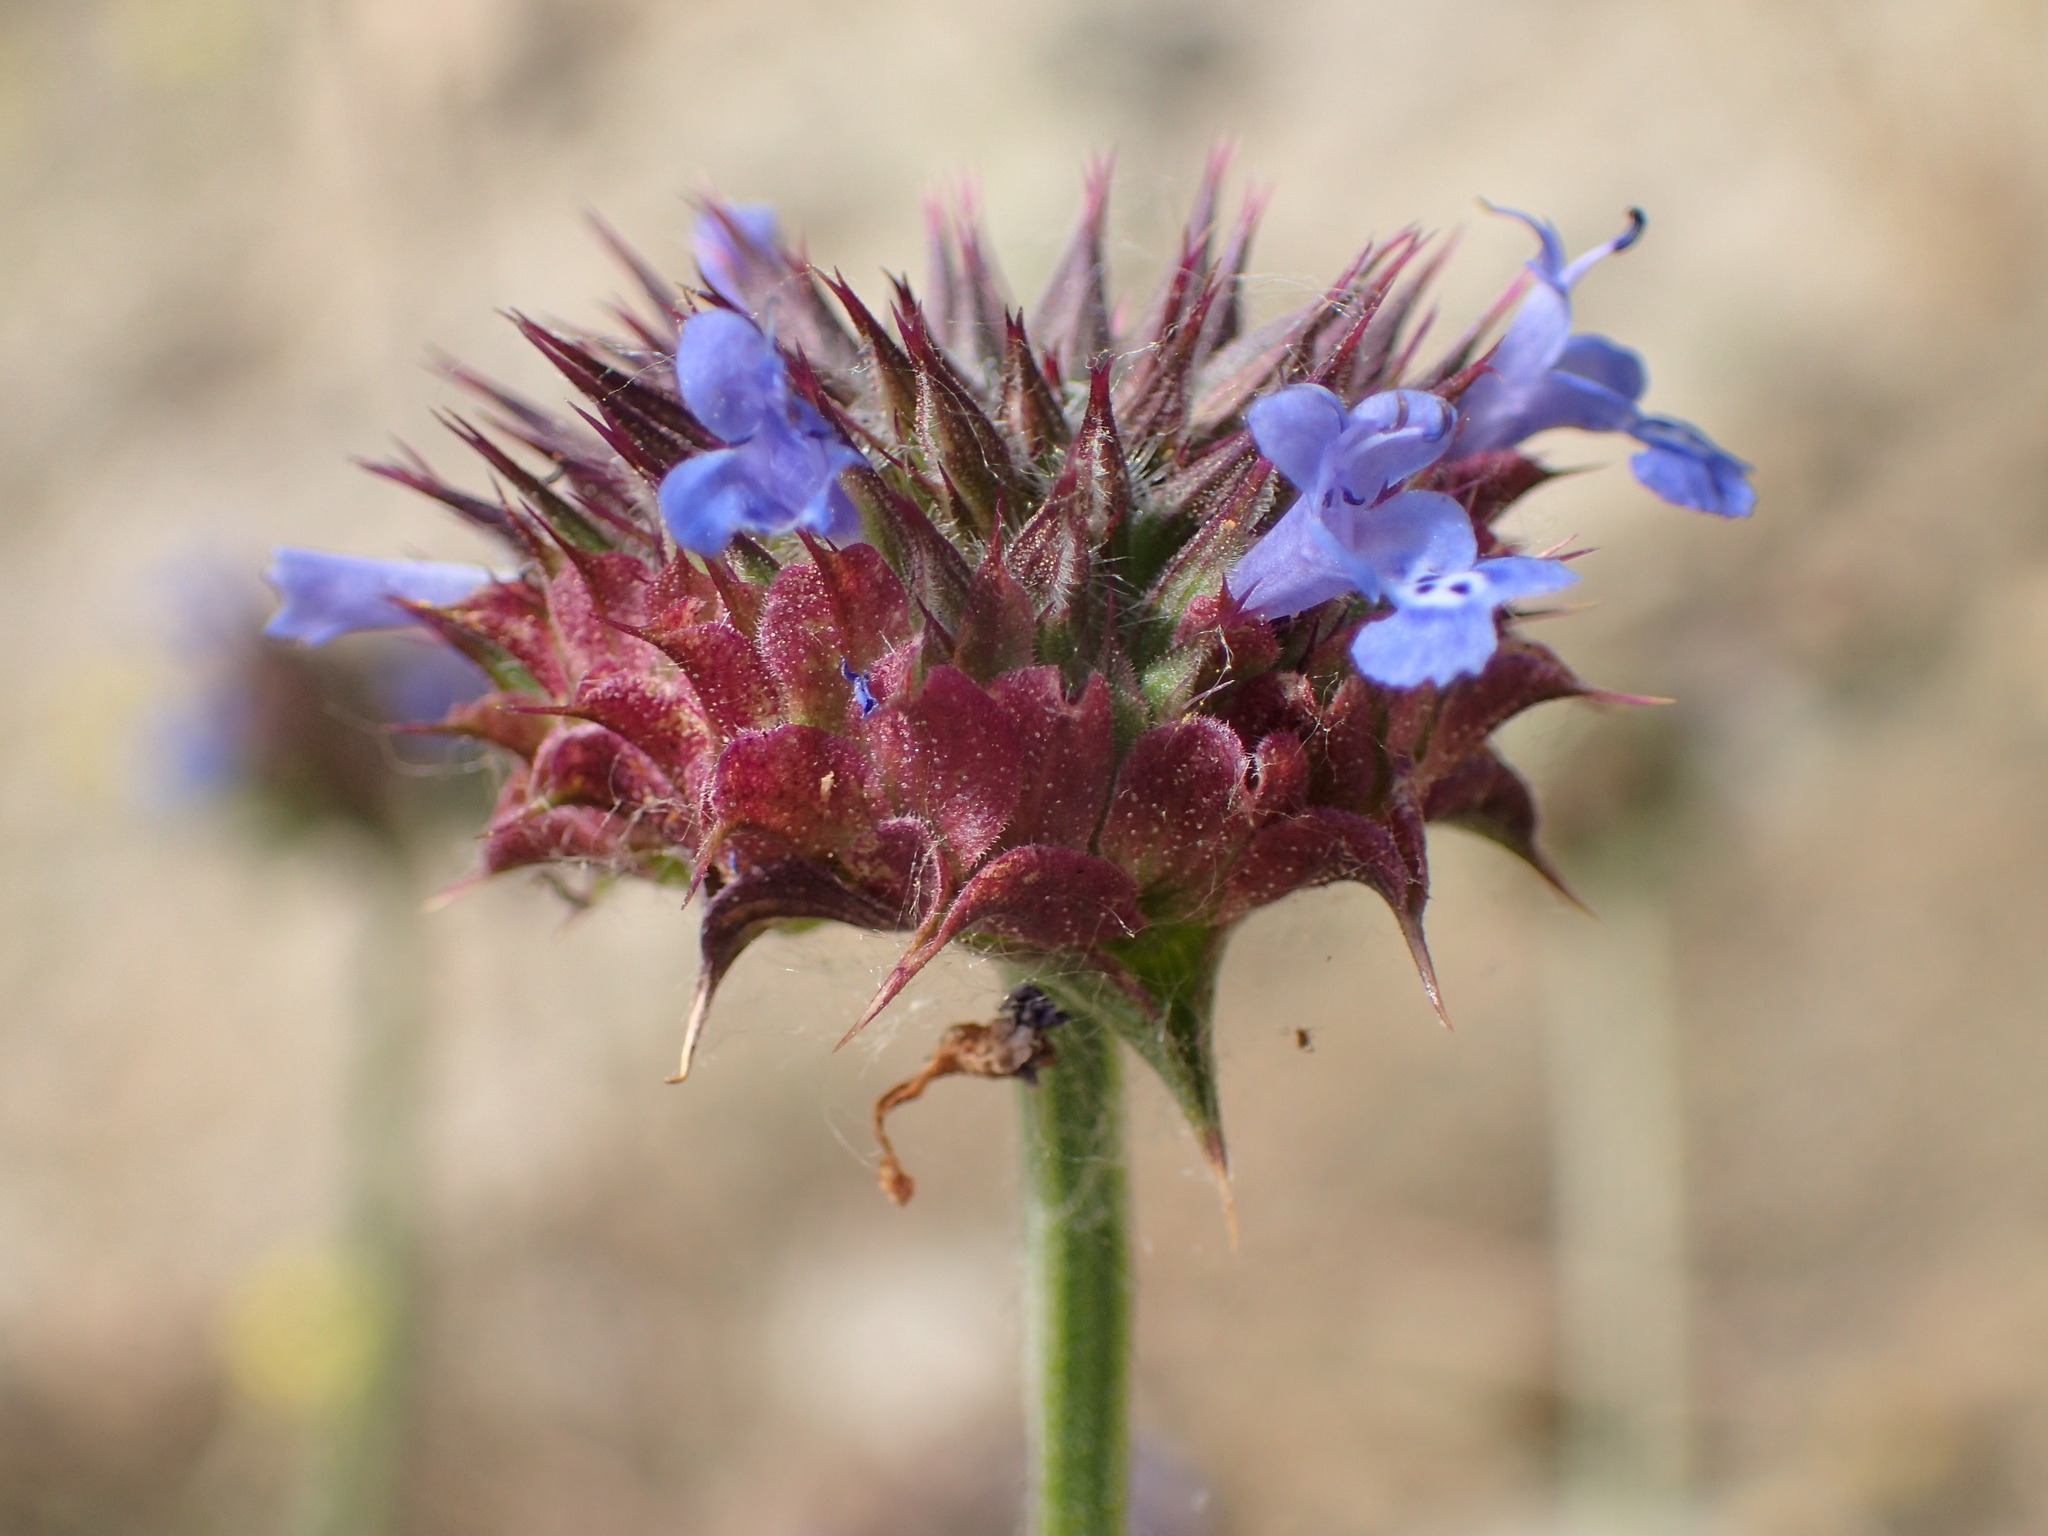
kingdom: Plantae
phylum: Tracheophyta
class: Magnoliopsida
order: Lamiales
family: Lamiaceae
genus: Salvia
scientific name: Salvia columbariae
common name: Chia
